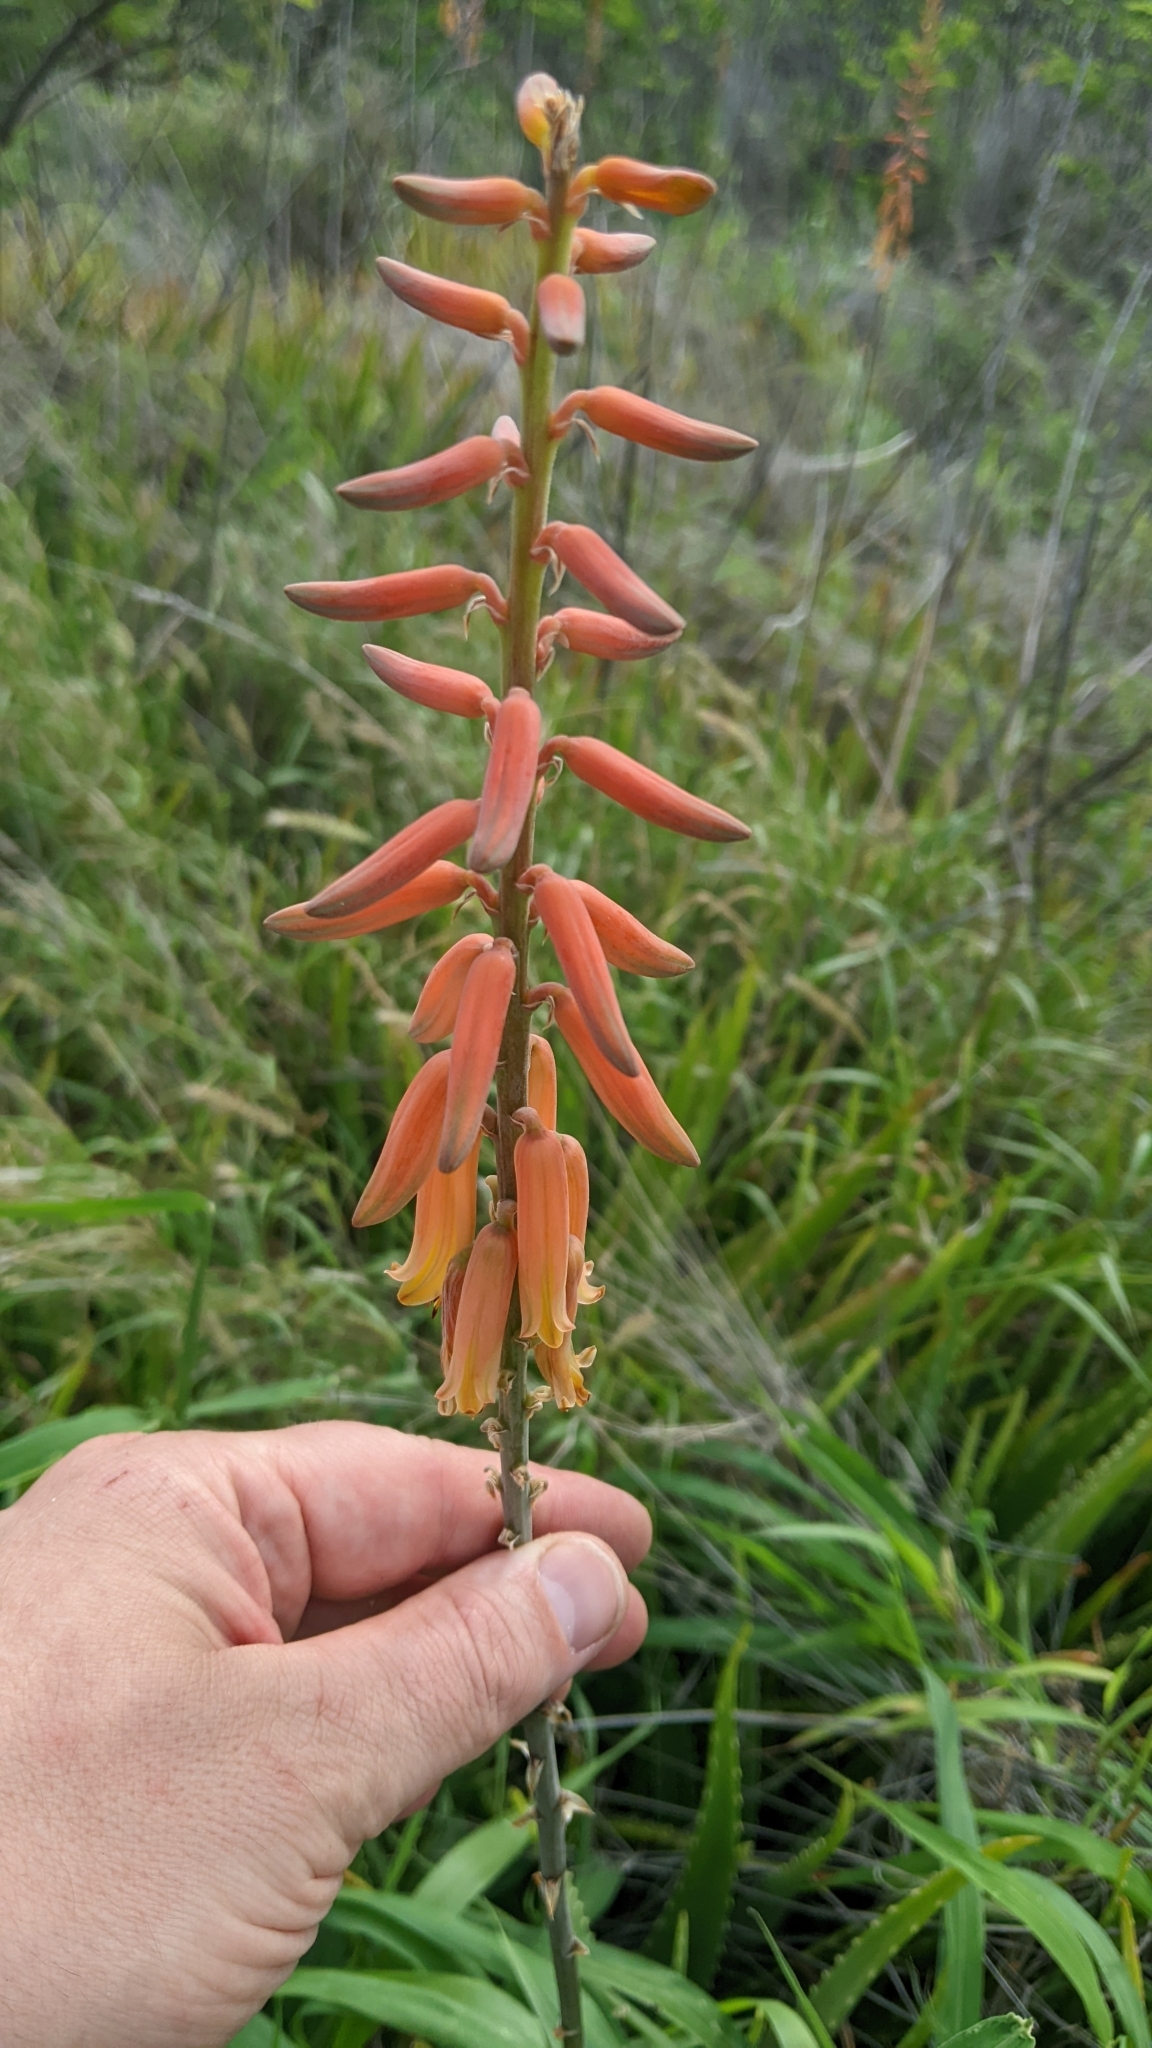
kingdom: Plantae
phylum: Tracheophyta
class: Liliopsida
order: Asparagales
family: Asphodelaceae
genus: Aloe
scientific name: Aloe vera
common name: Barbados aloe
